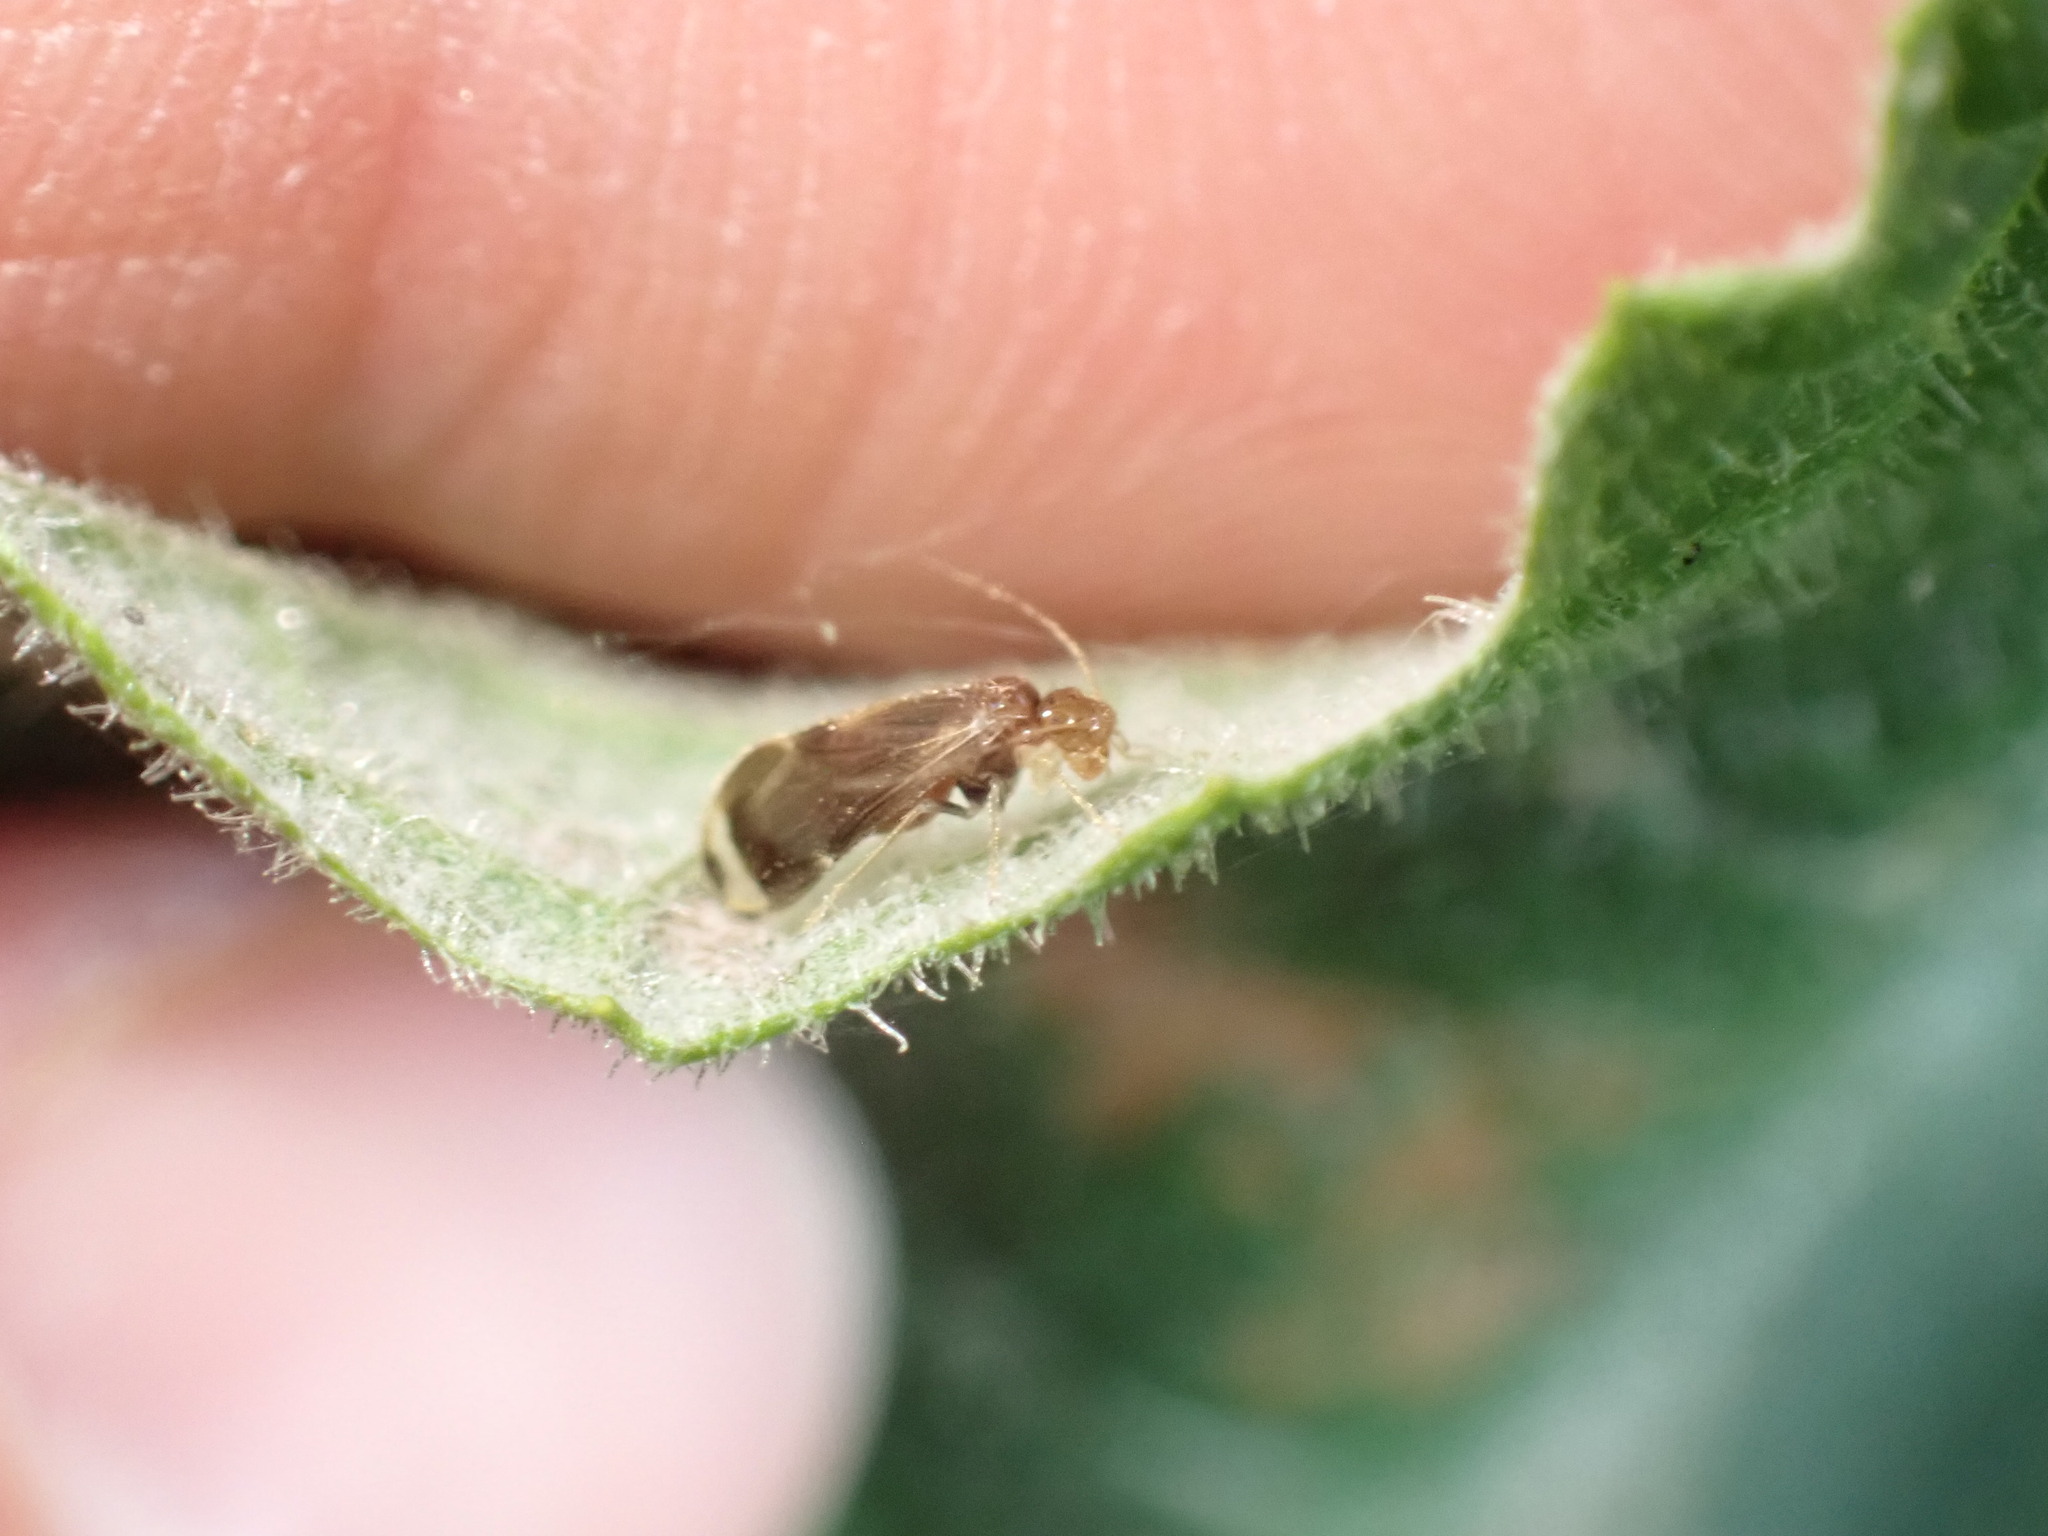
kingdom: Animalia
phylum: Arthropoda
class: Insecta
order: Psocodea
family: Amphipsocidae
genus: Polypsocus
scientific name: Polypsocus corruptus
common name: Corrupt barklouse
